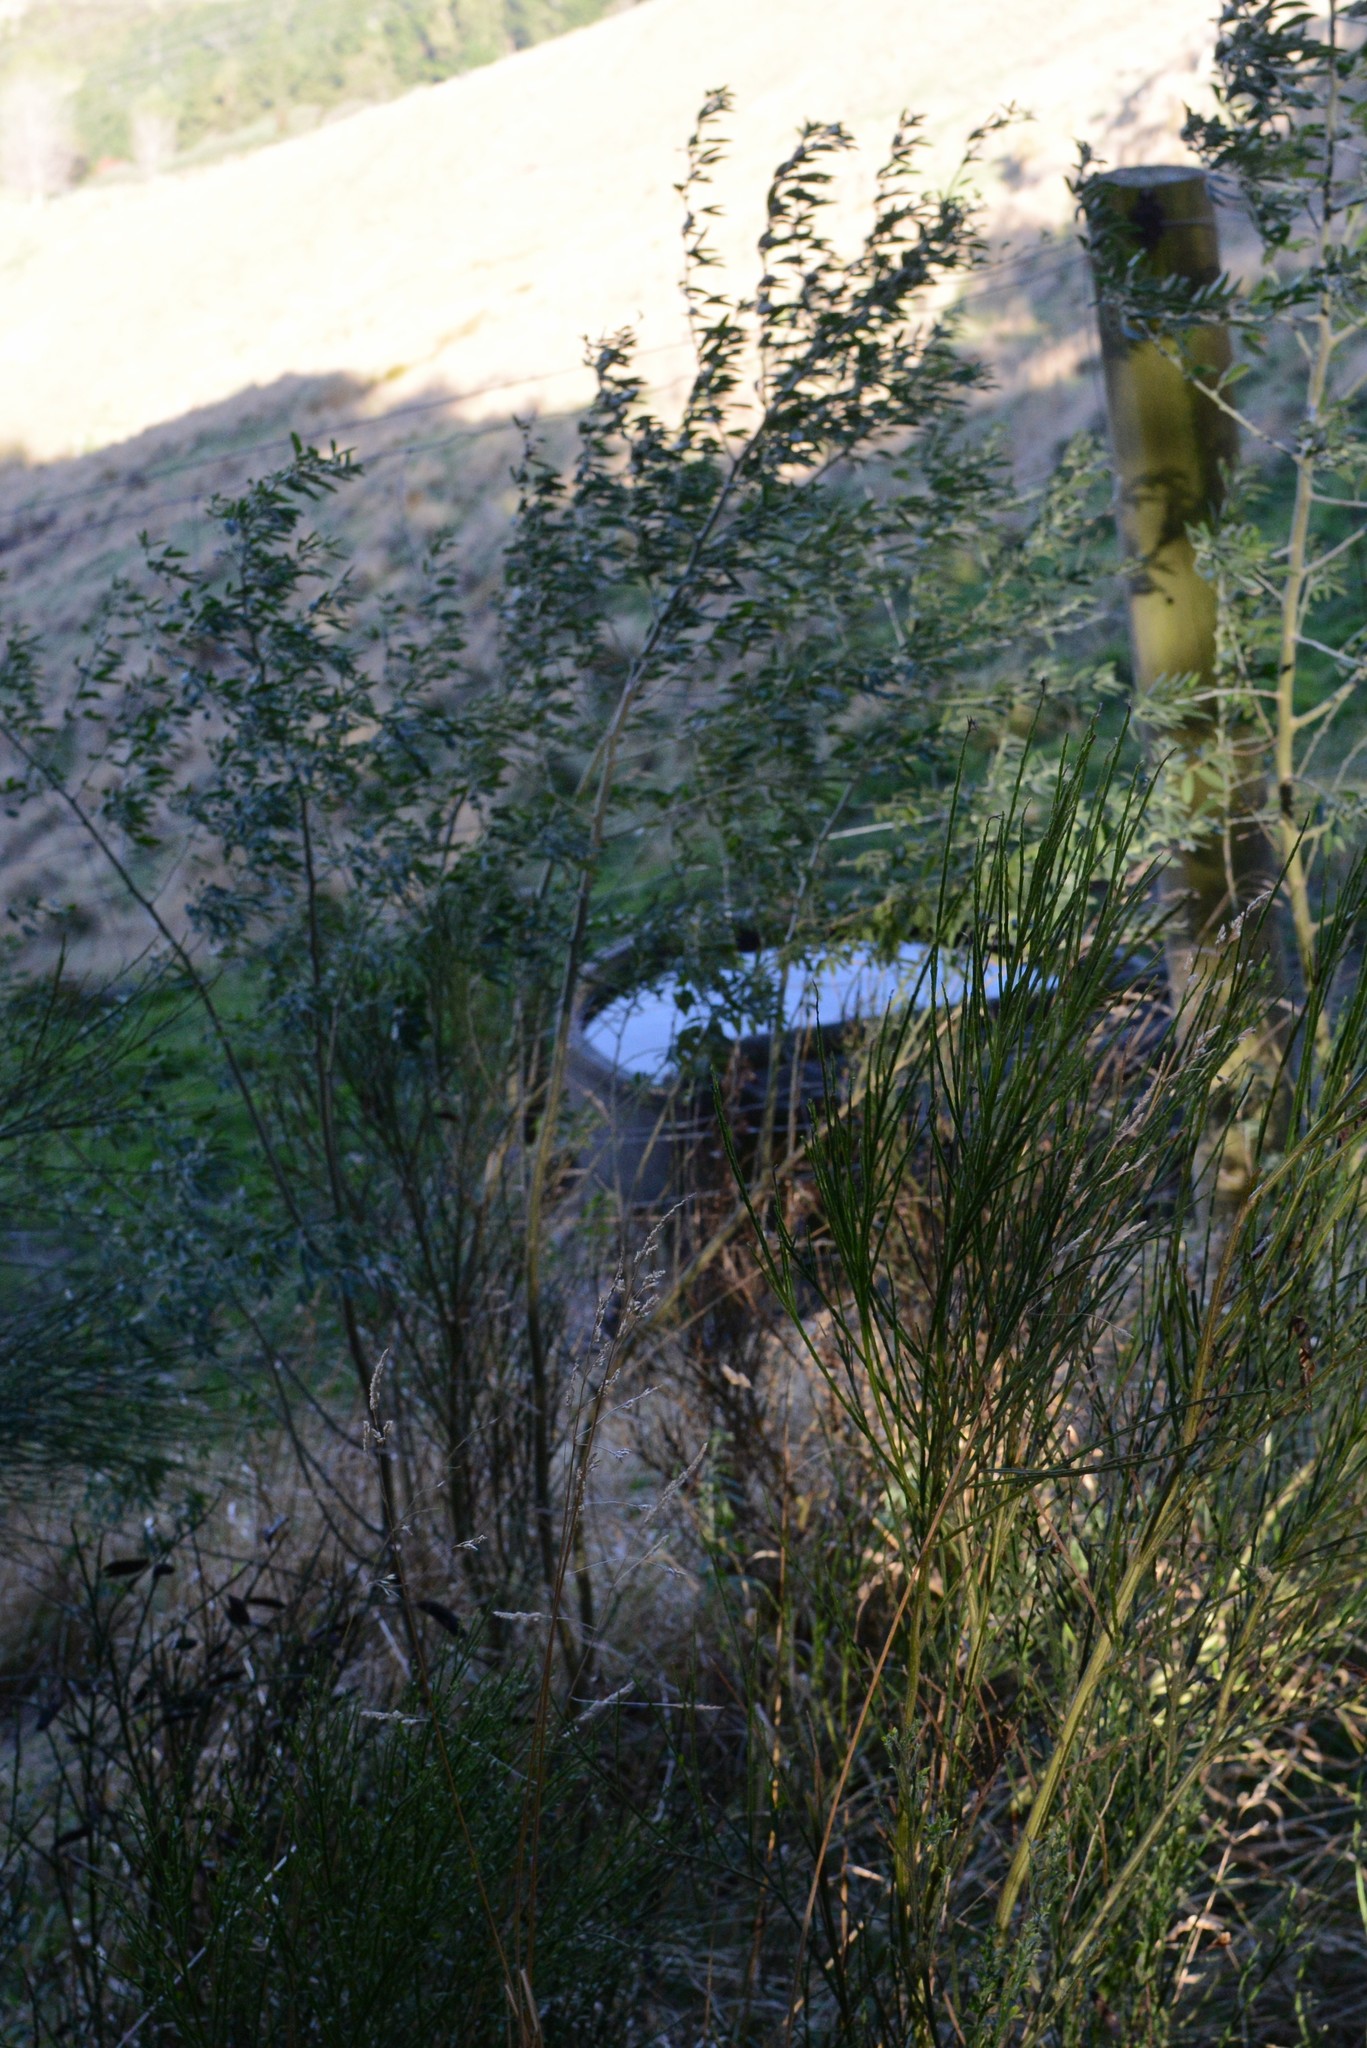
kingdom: Plantae
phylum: Tracheophyta
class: Magnoliopsida
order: Fabales
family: Fabaceae
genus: Cytisus
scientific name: Cytisus scoparius
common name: Scotch broom
